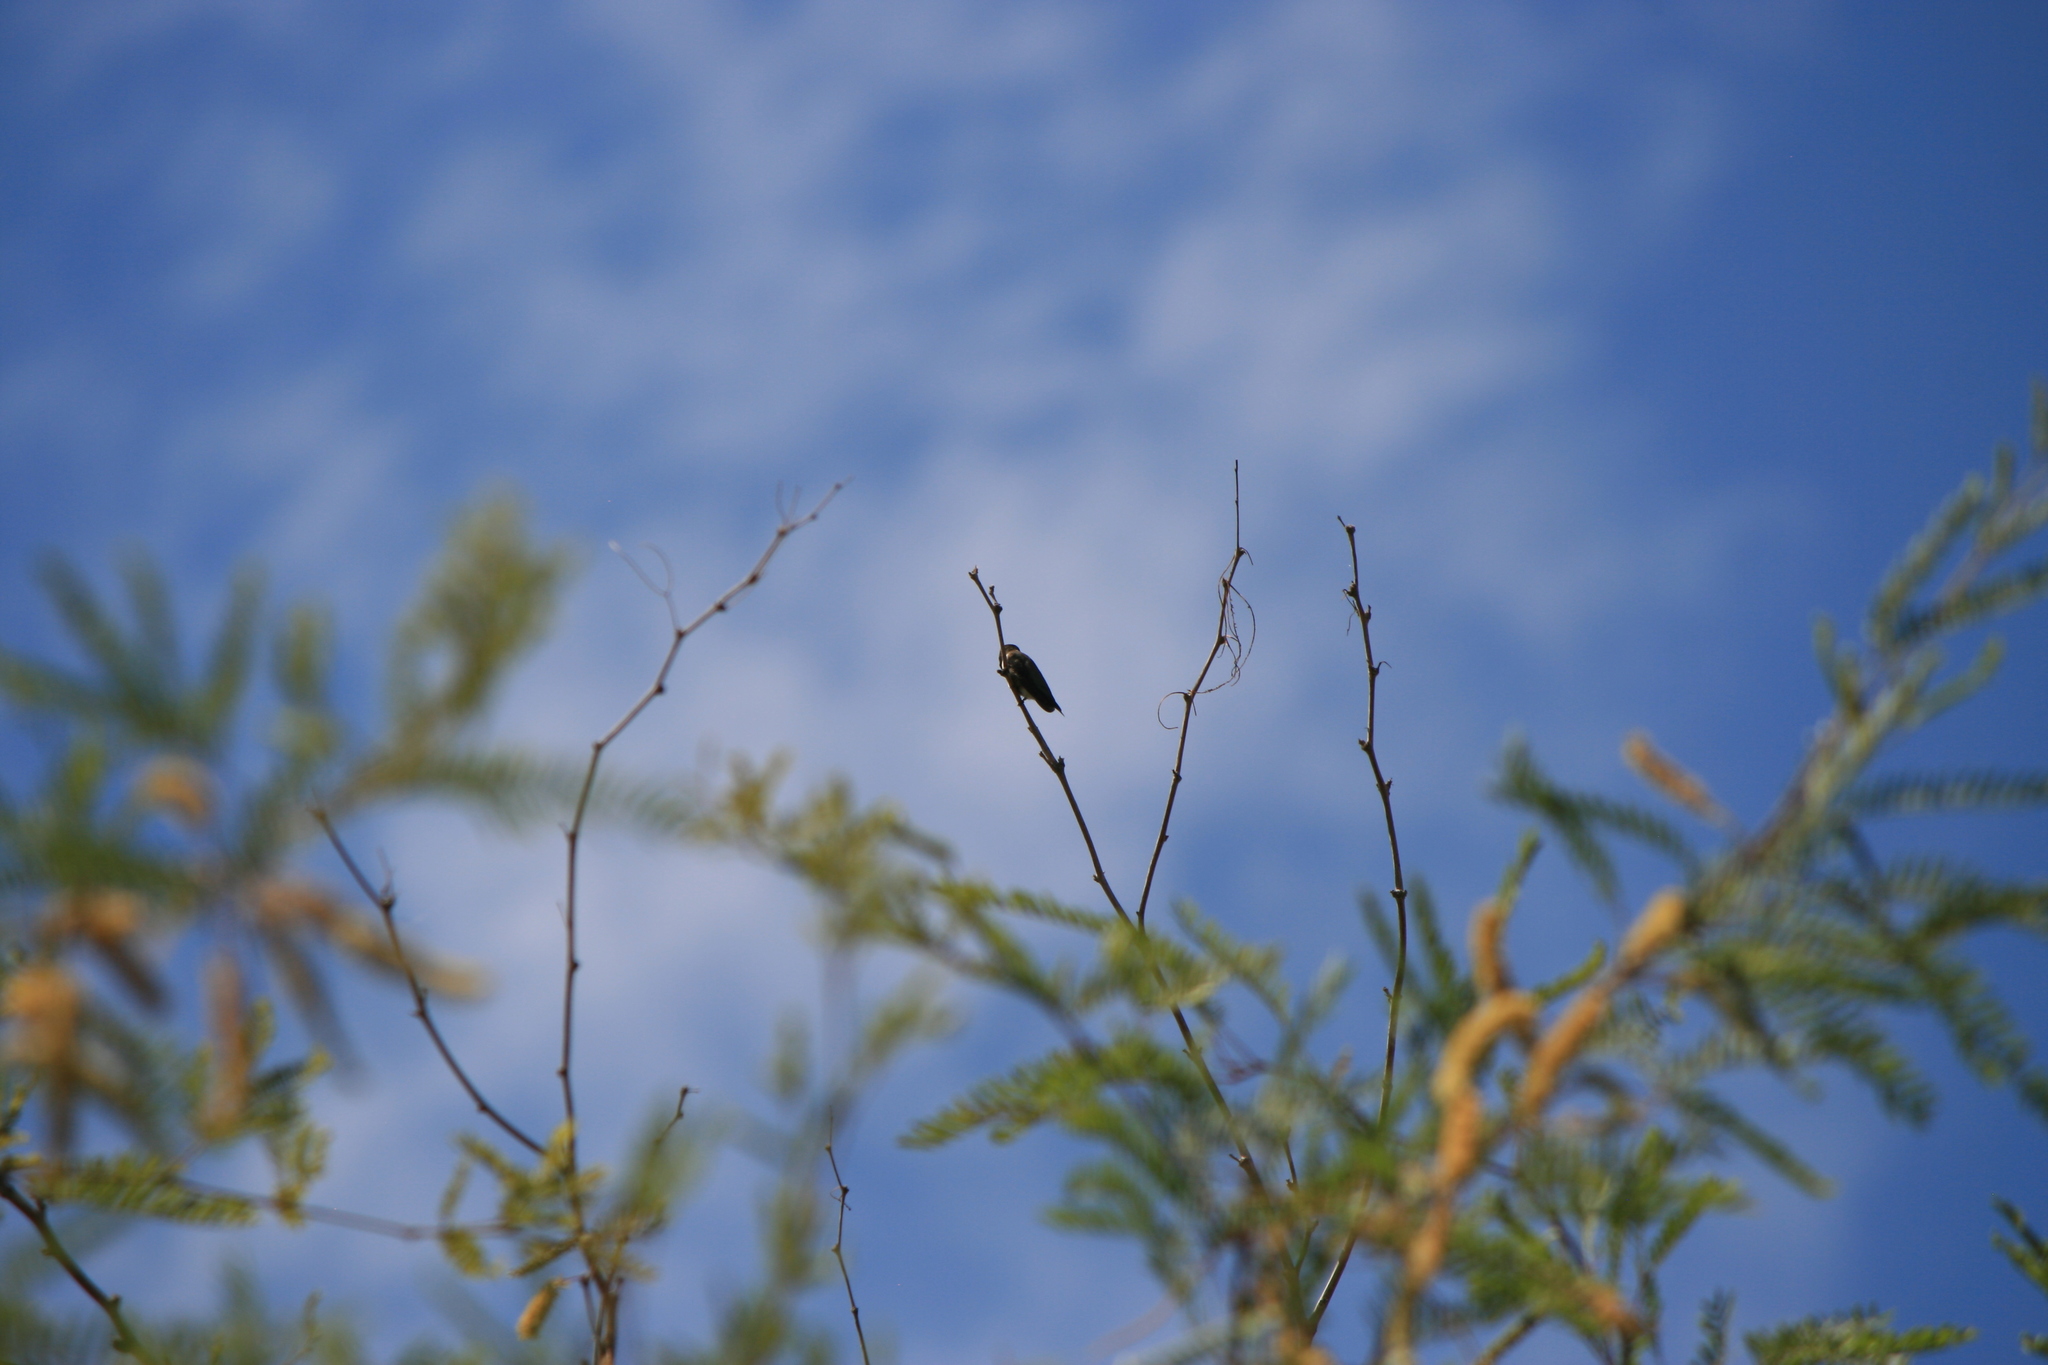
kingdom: Animalia
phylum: Chordata
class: Aves
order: Apodiformes
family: Trochilidae
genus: Archilochus
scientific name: Archilochus alexandri
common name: Black-chinned hummingbird
